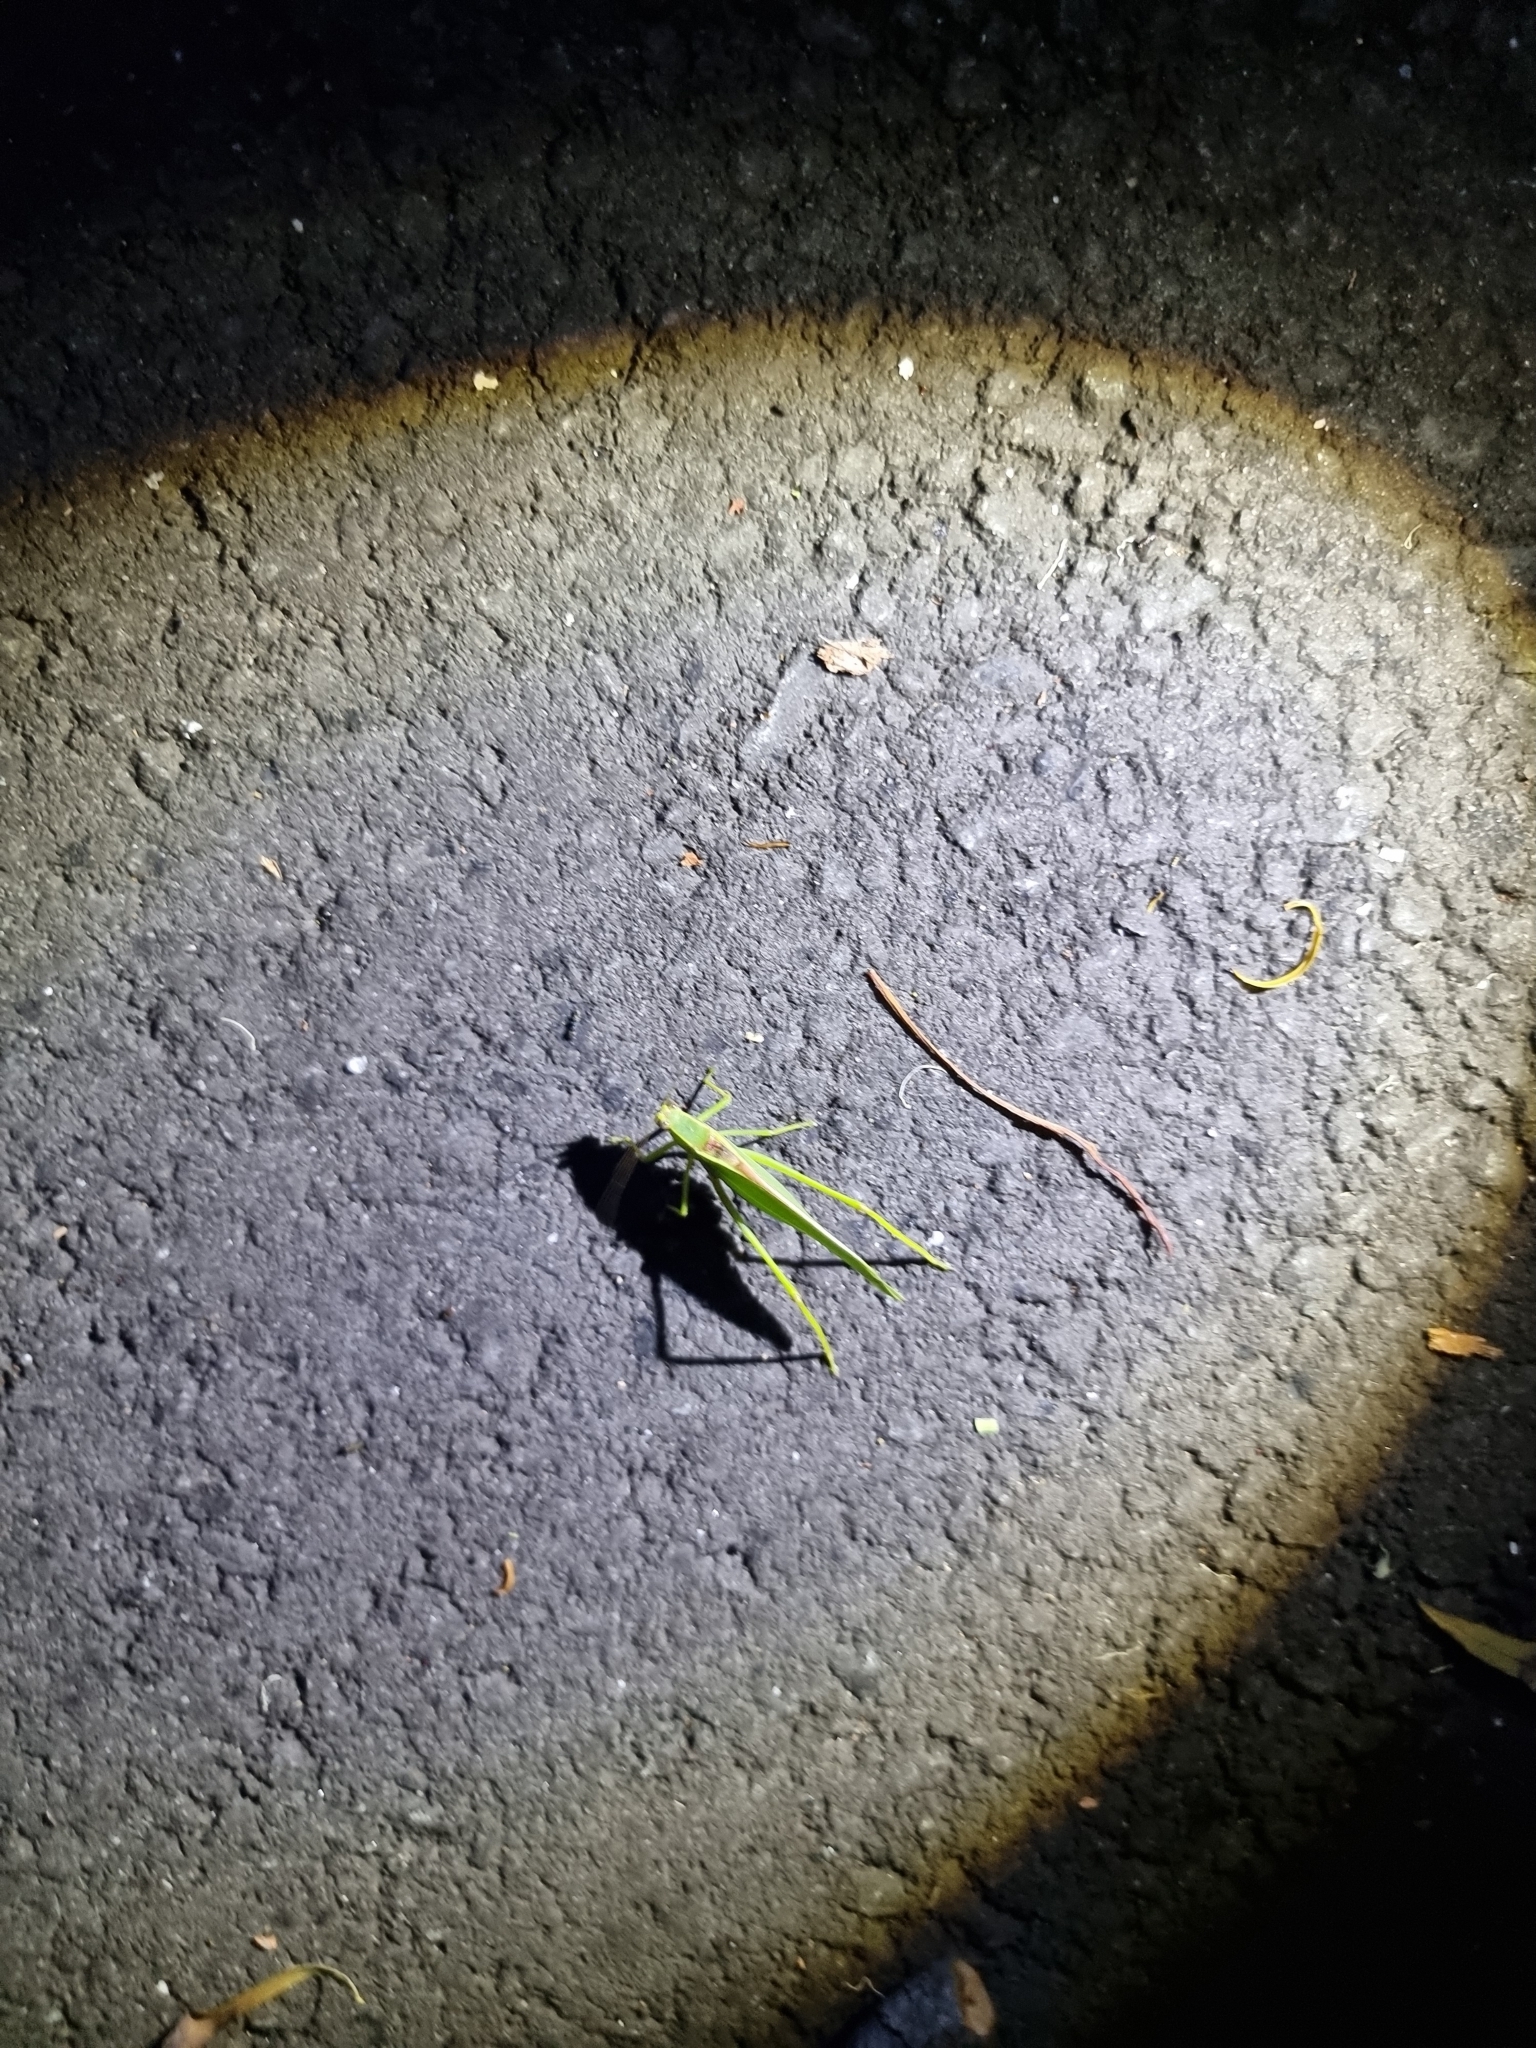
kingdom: Animalia
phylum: Arthropoda
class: Insecta
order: Orthoptera
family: Tettigoniidae
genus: Torbia
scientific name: Torbia viridissima
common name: Non-predaceous gum leaf katydid
